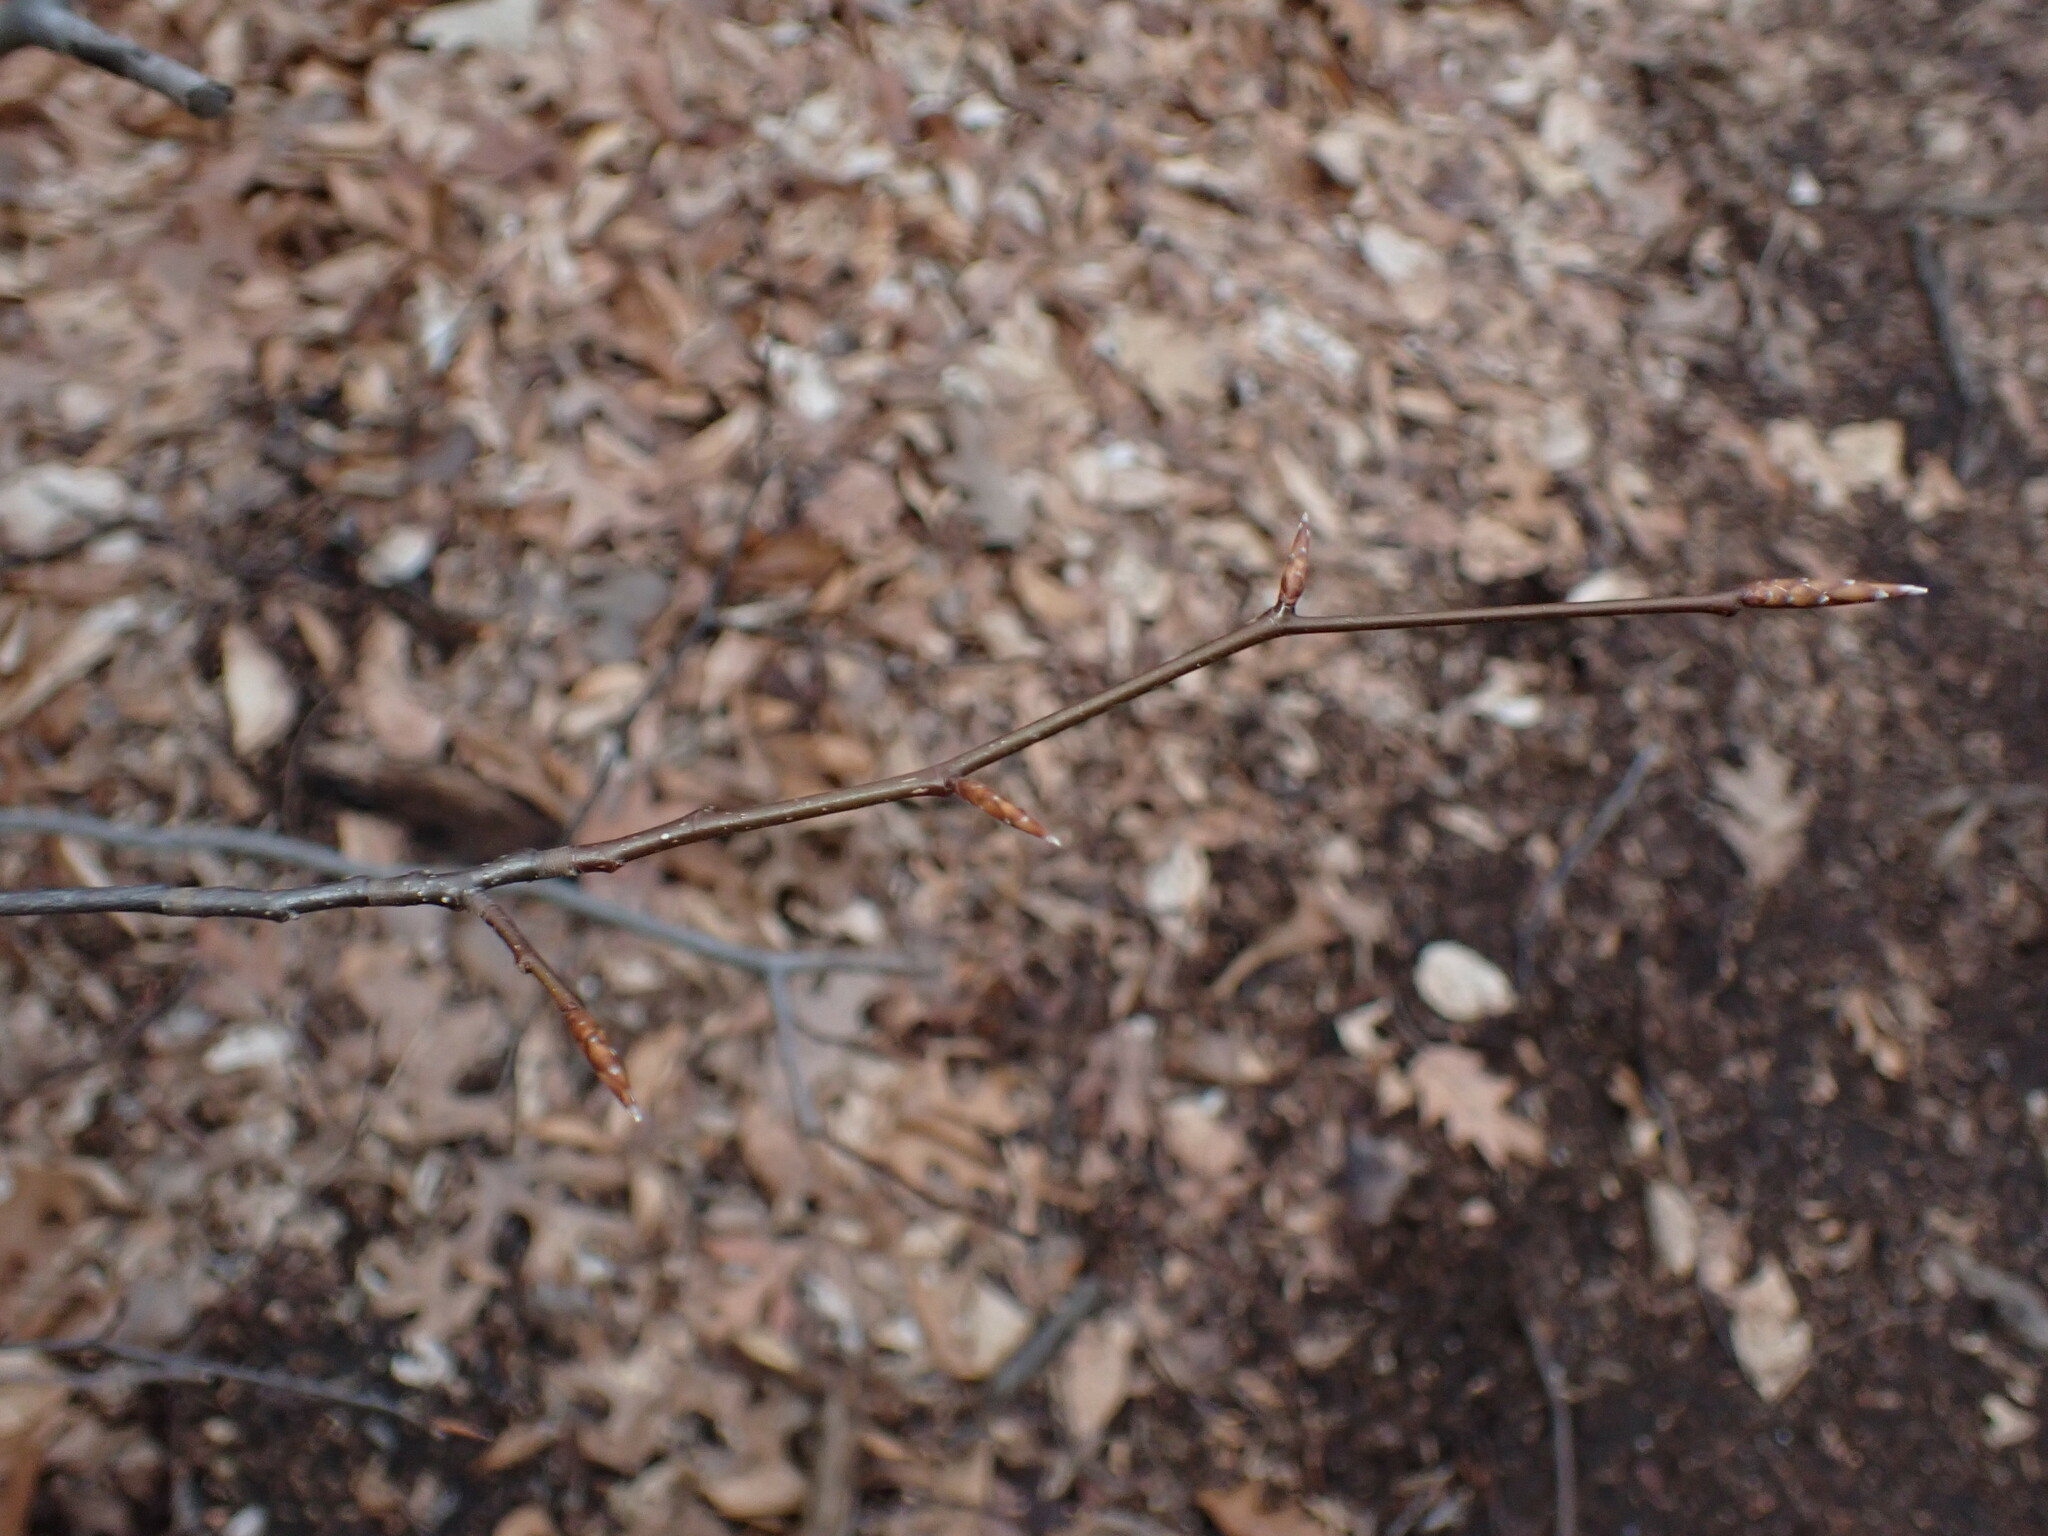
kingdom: Plantae
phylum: Tracheophyta
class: Magnoliopsida
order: Fagales
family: Fagaceae
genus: Fagus
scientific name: Fagus grandifolia
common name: American beech
